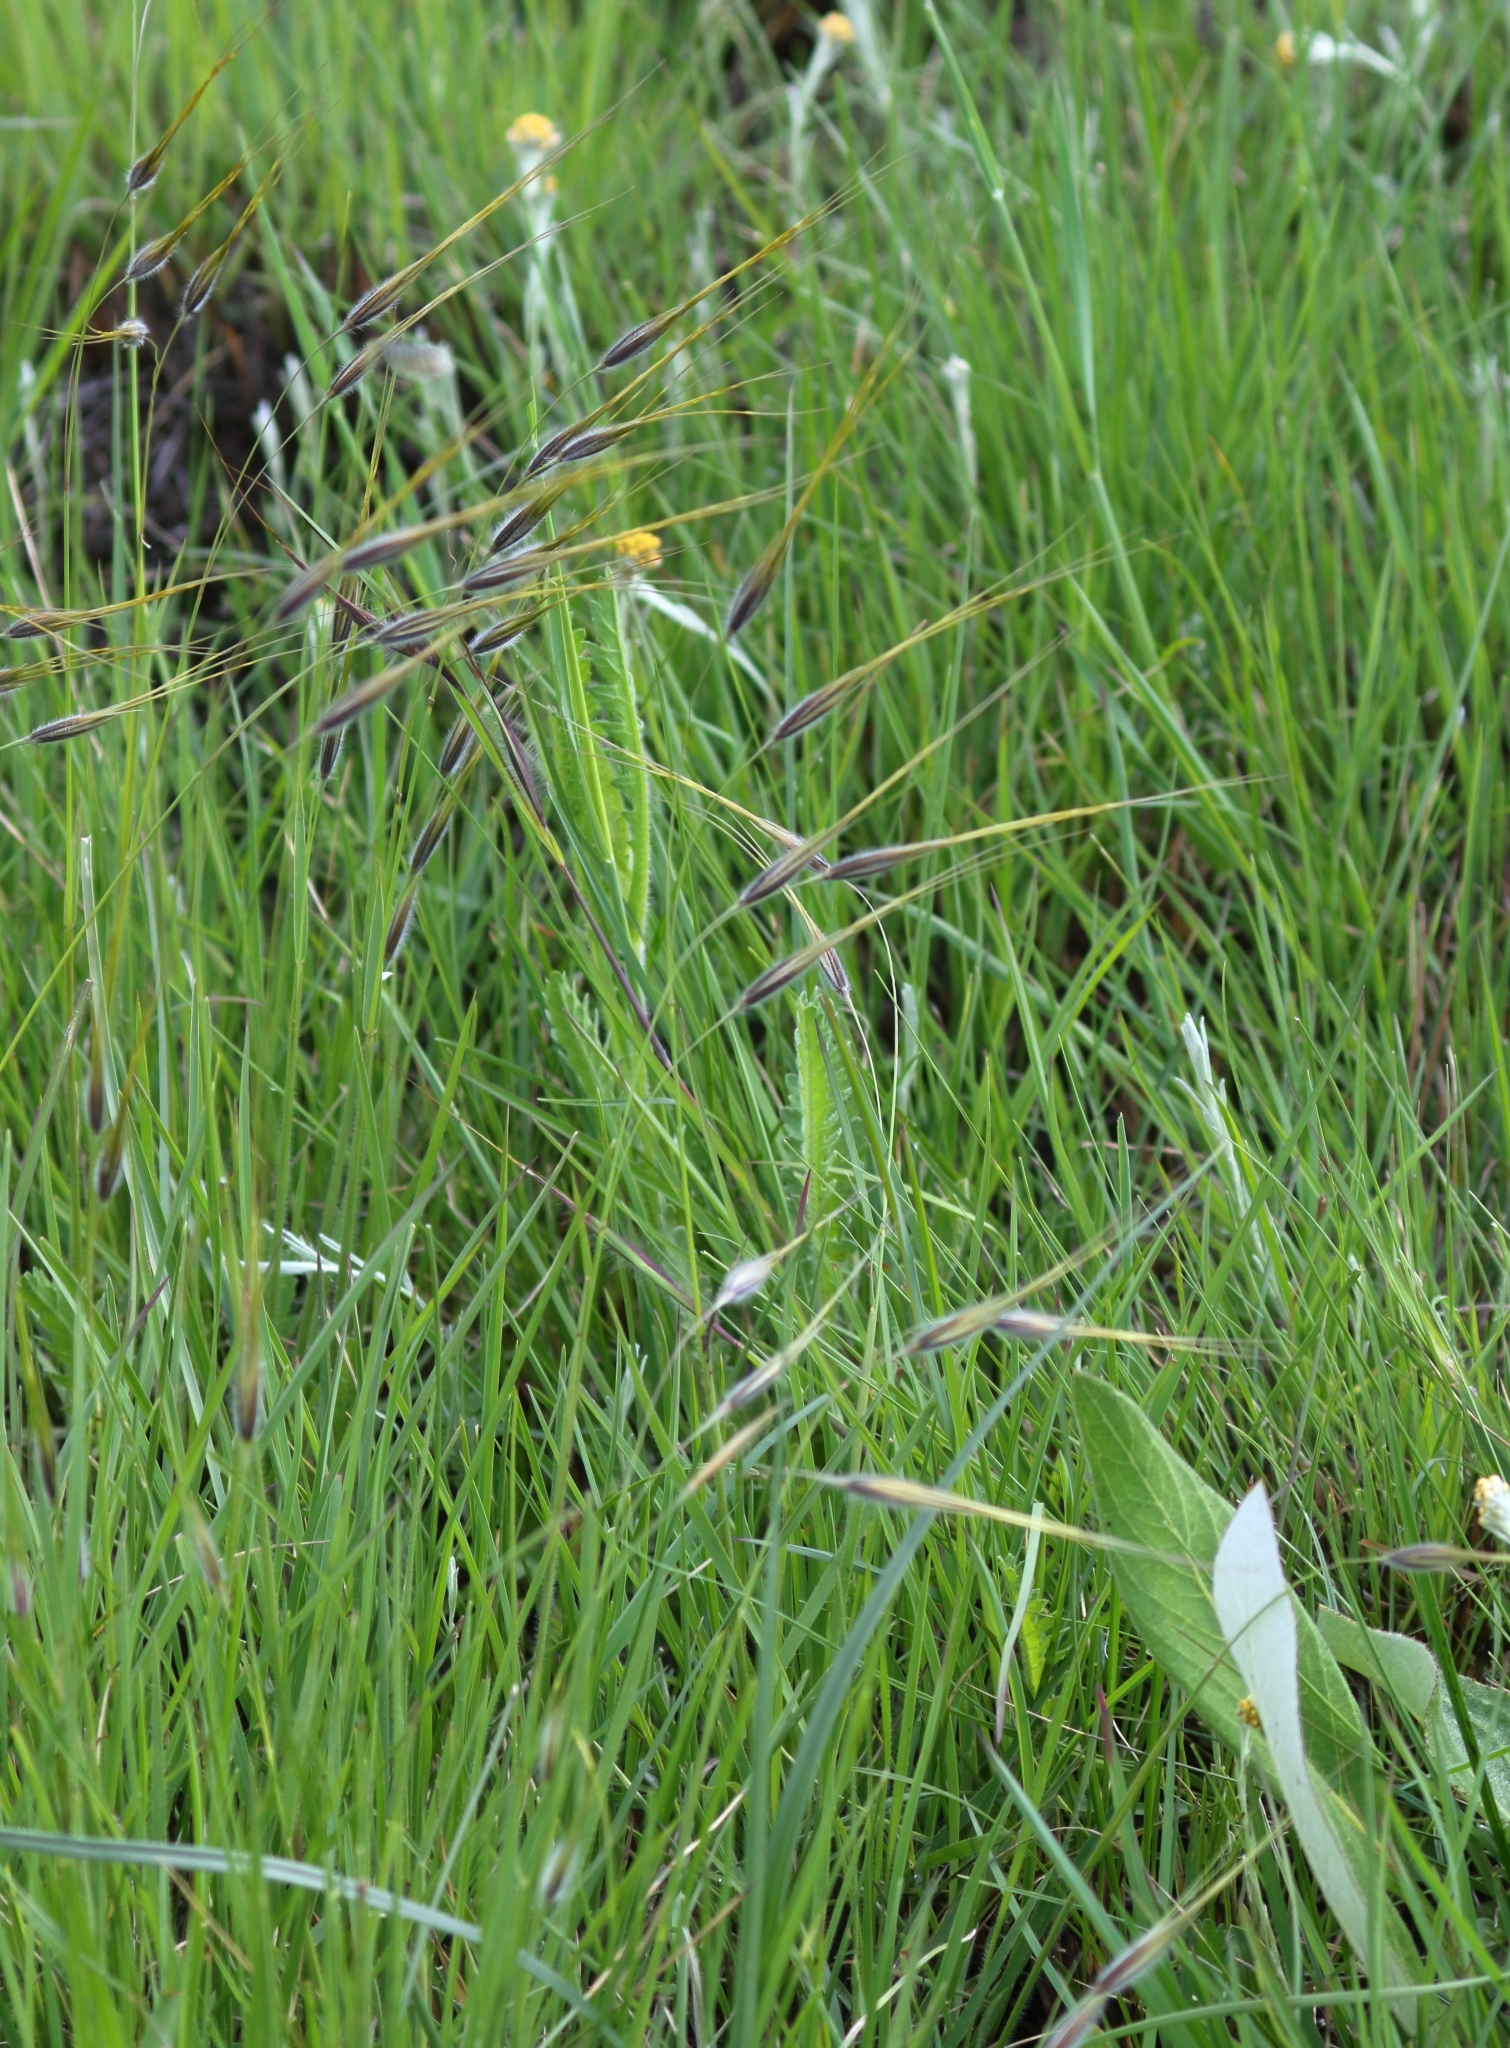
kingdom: Plantae
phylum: Tracheophyta
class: Liliopsida
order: Poales
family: Poaceae
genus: Tristachya
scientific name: Tristachya leucothrix
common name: Trident grass
